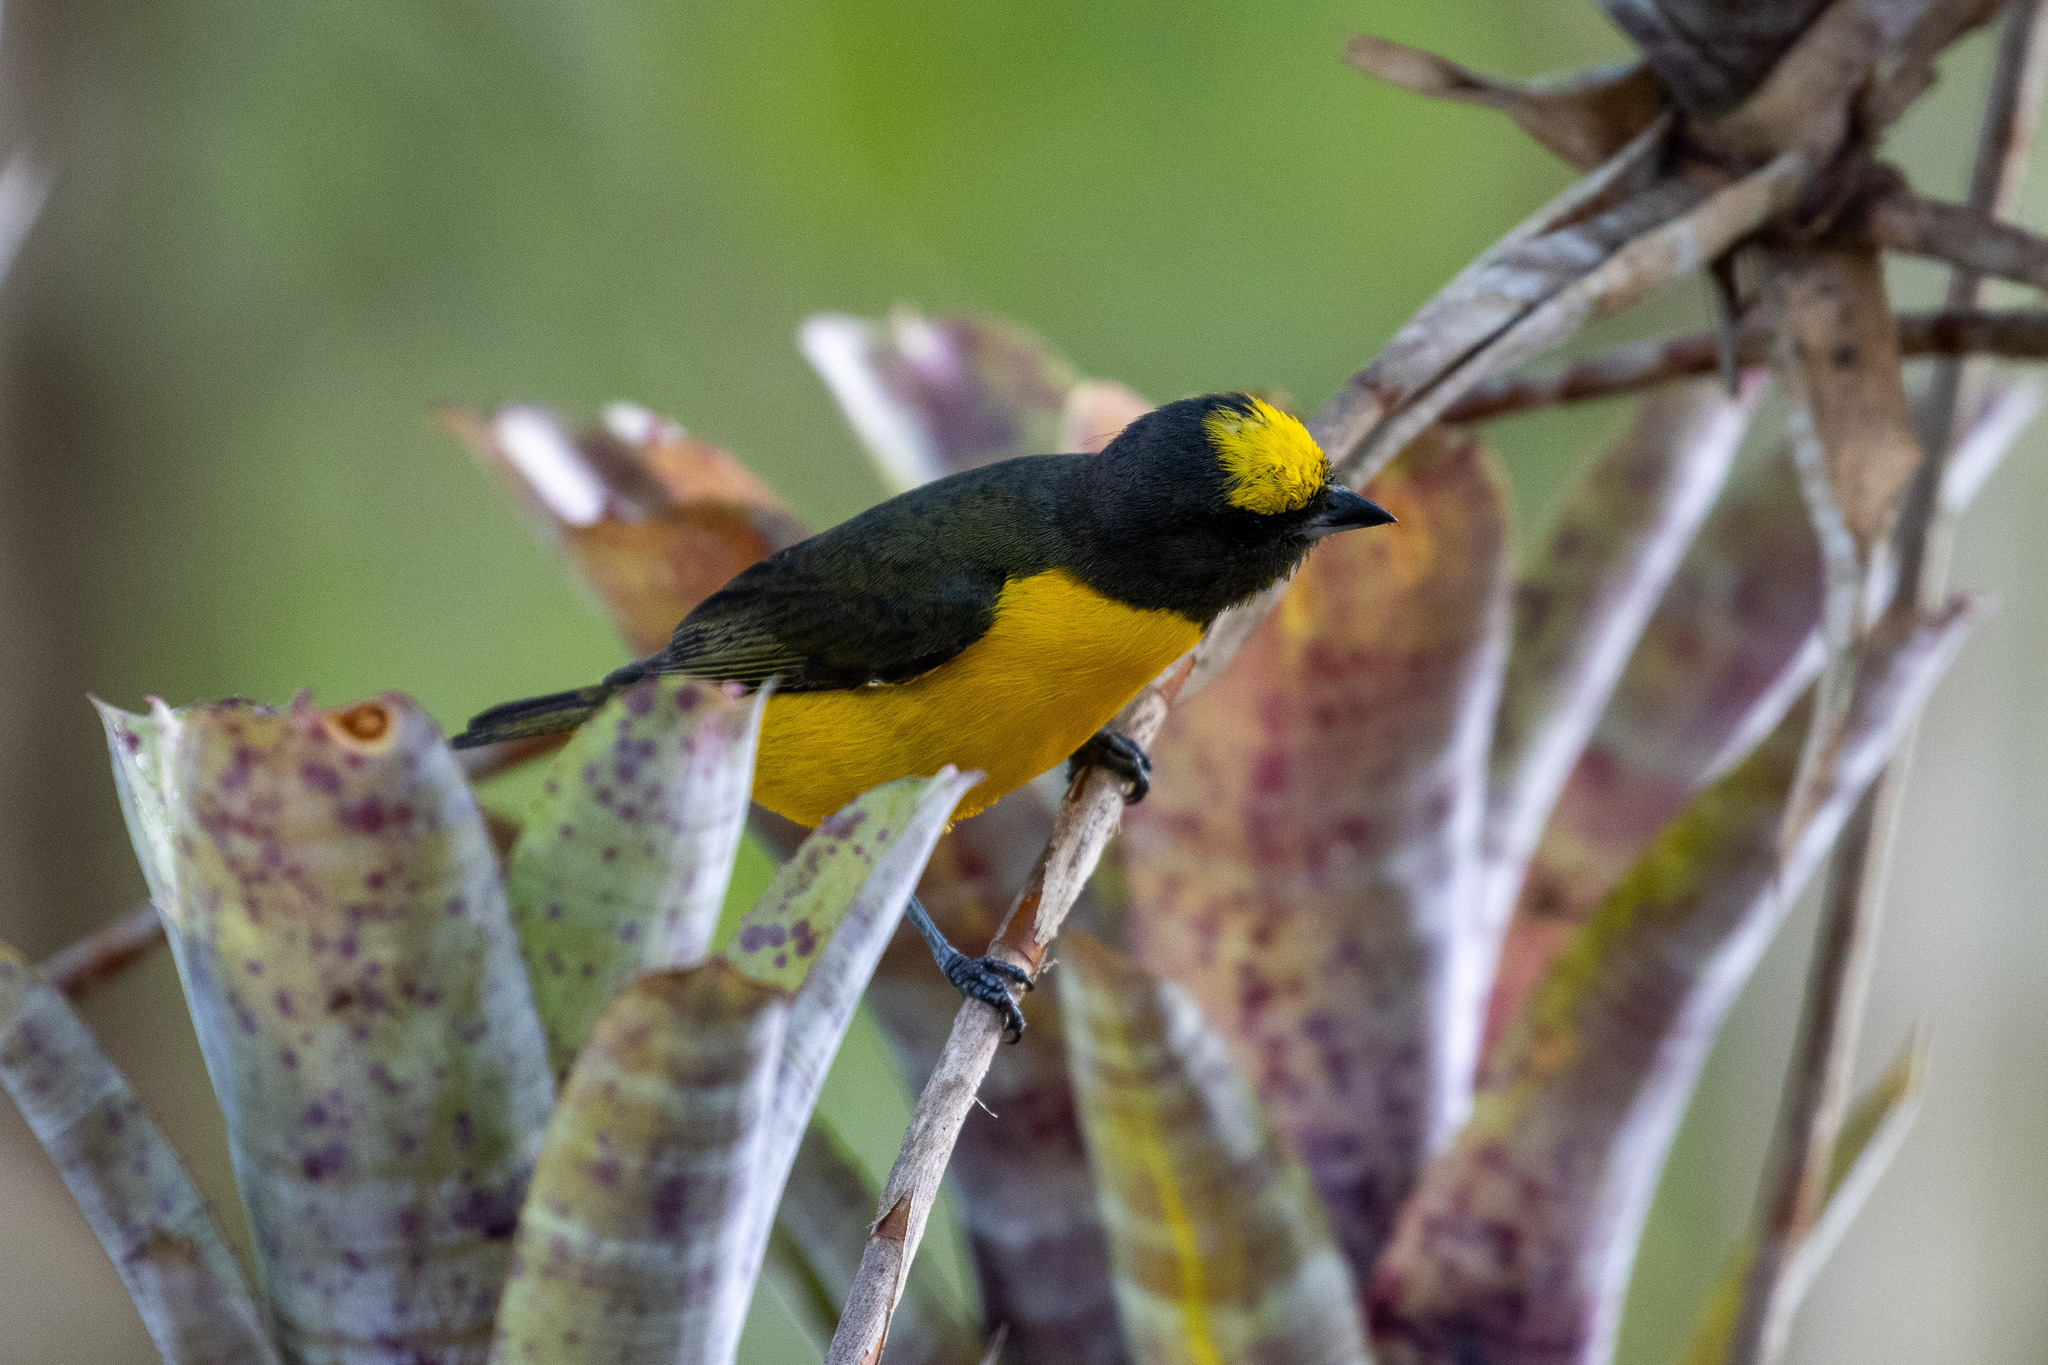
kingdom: Animalia
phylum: Chordata
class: Aves
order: Passeriformes
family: Fringillidae
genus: Euphonia
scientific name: Euphonia chlorotica
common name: Purple-throated euphonia
